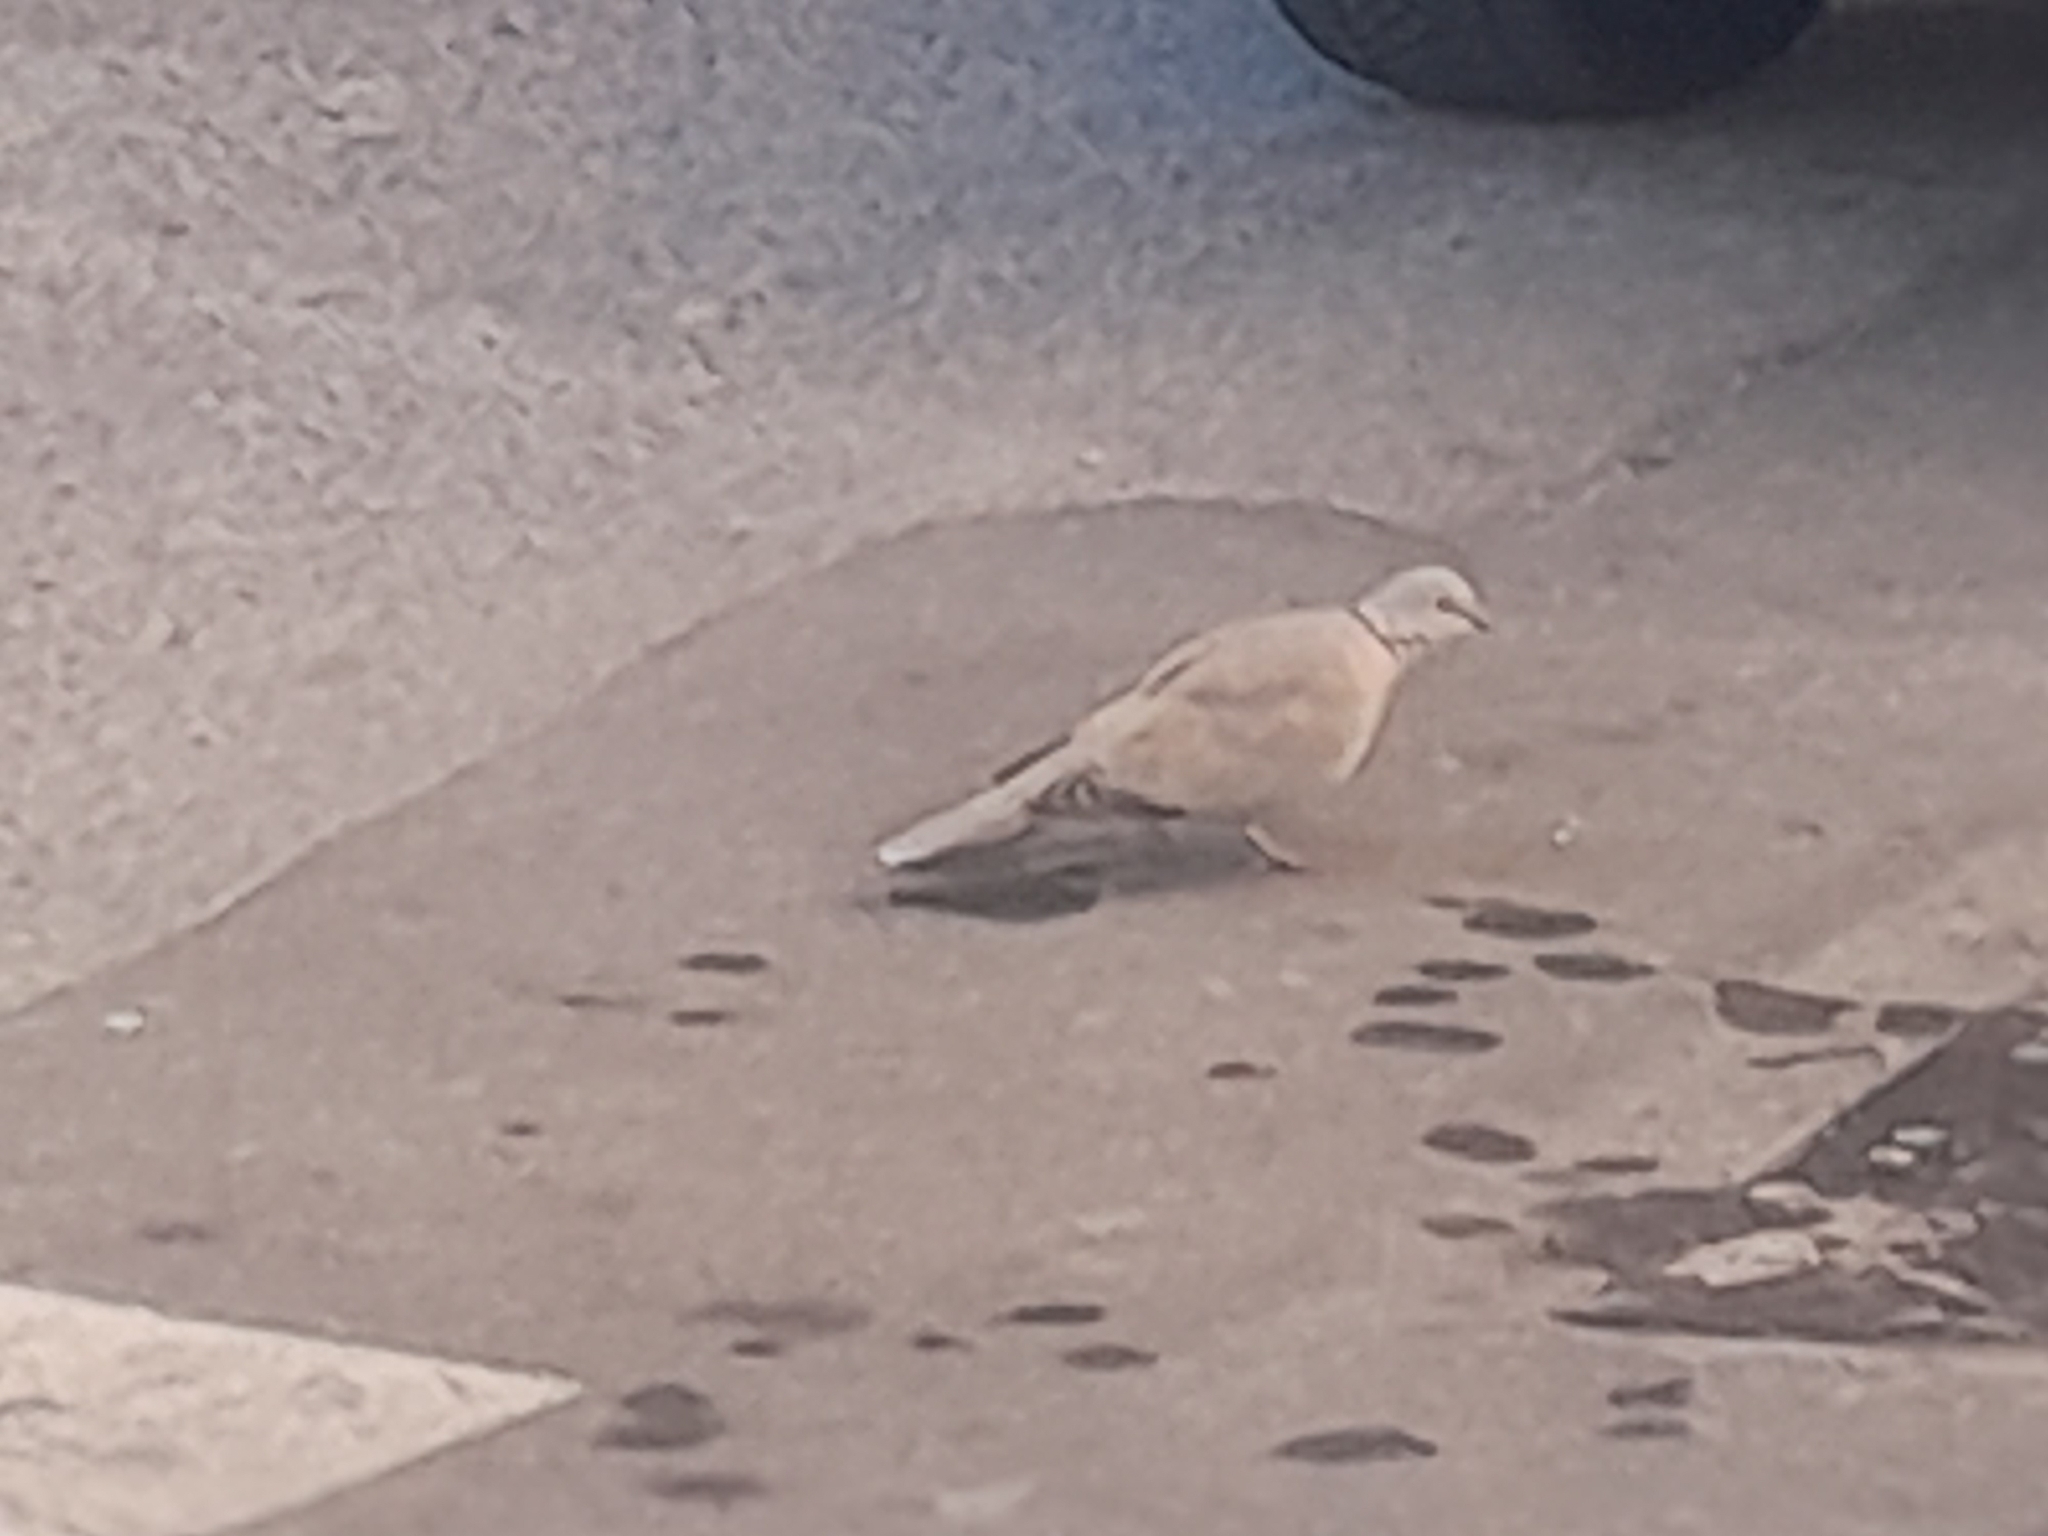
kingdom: Animalia
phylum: Chordata
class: Aves
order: Columbiformes
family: Columbidae
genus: Streptopelia
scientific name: Streptopelia decaocto
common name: Eurasian collared dove
